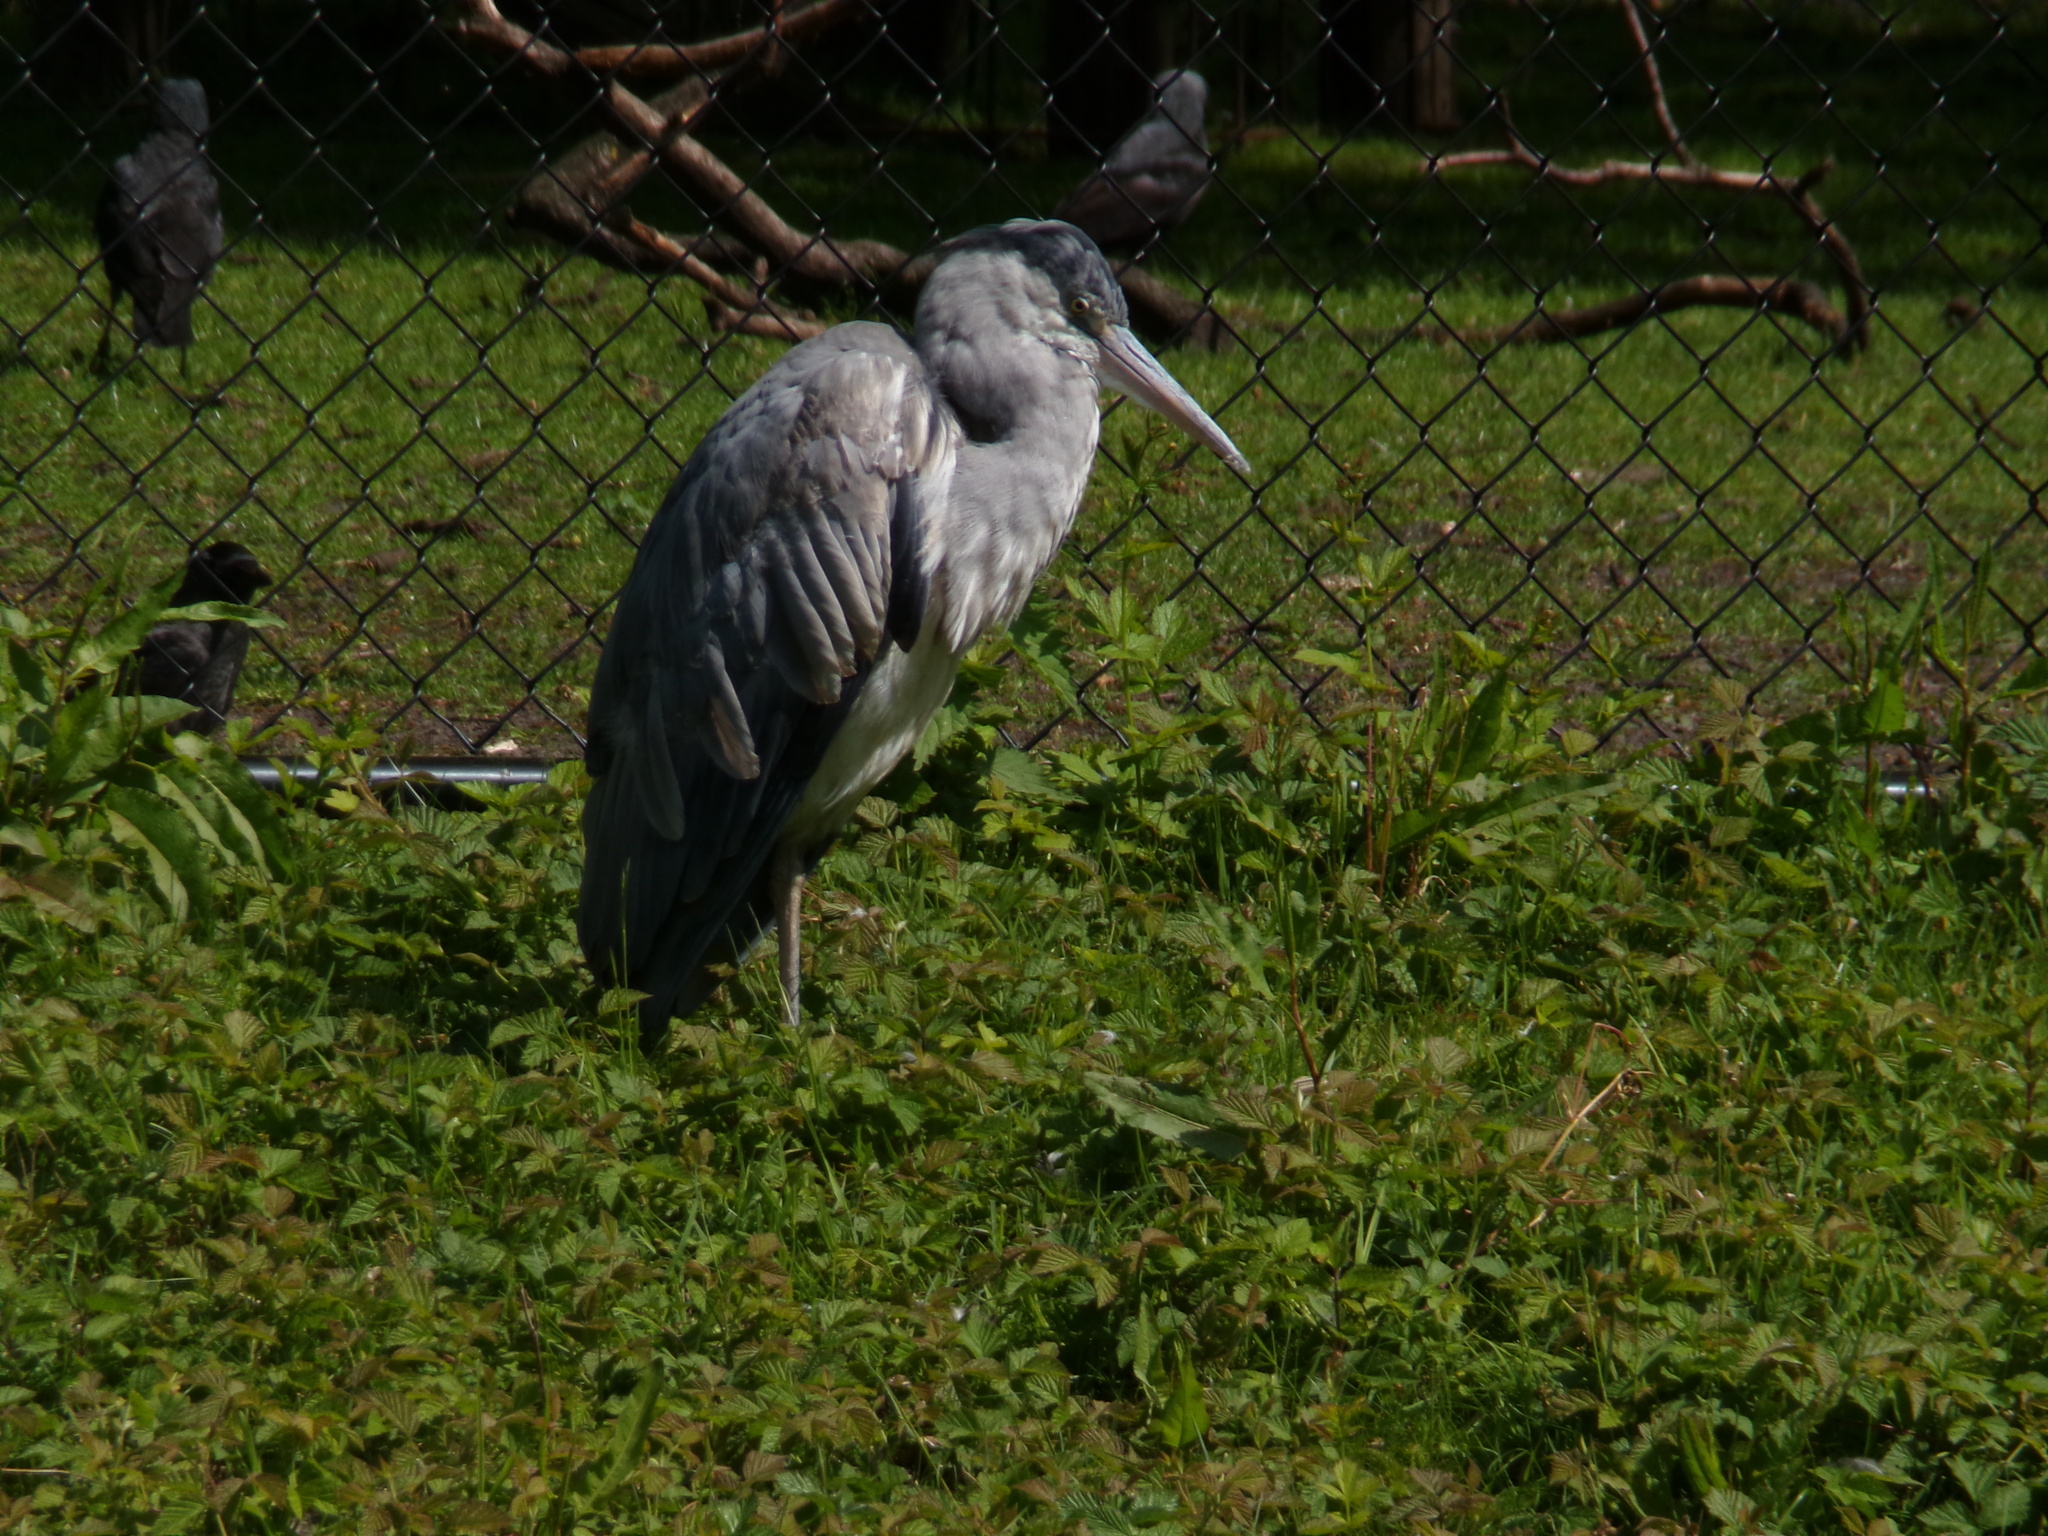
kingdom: Animalia
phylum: Chordata
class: Aves
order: Pelecaniformes
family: Ardeidae
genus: Ardea
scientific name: Ardea cinerea
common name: Grey heron
